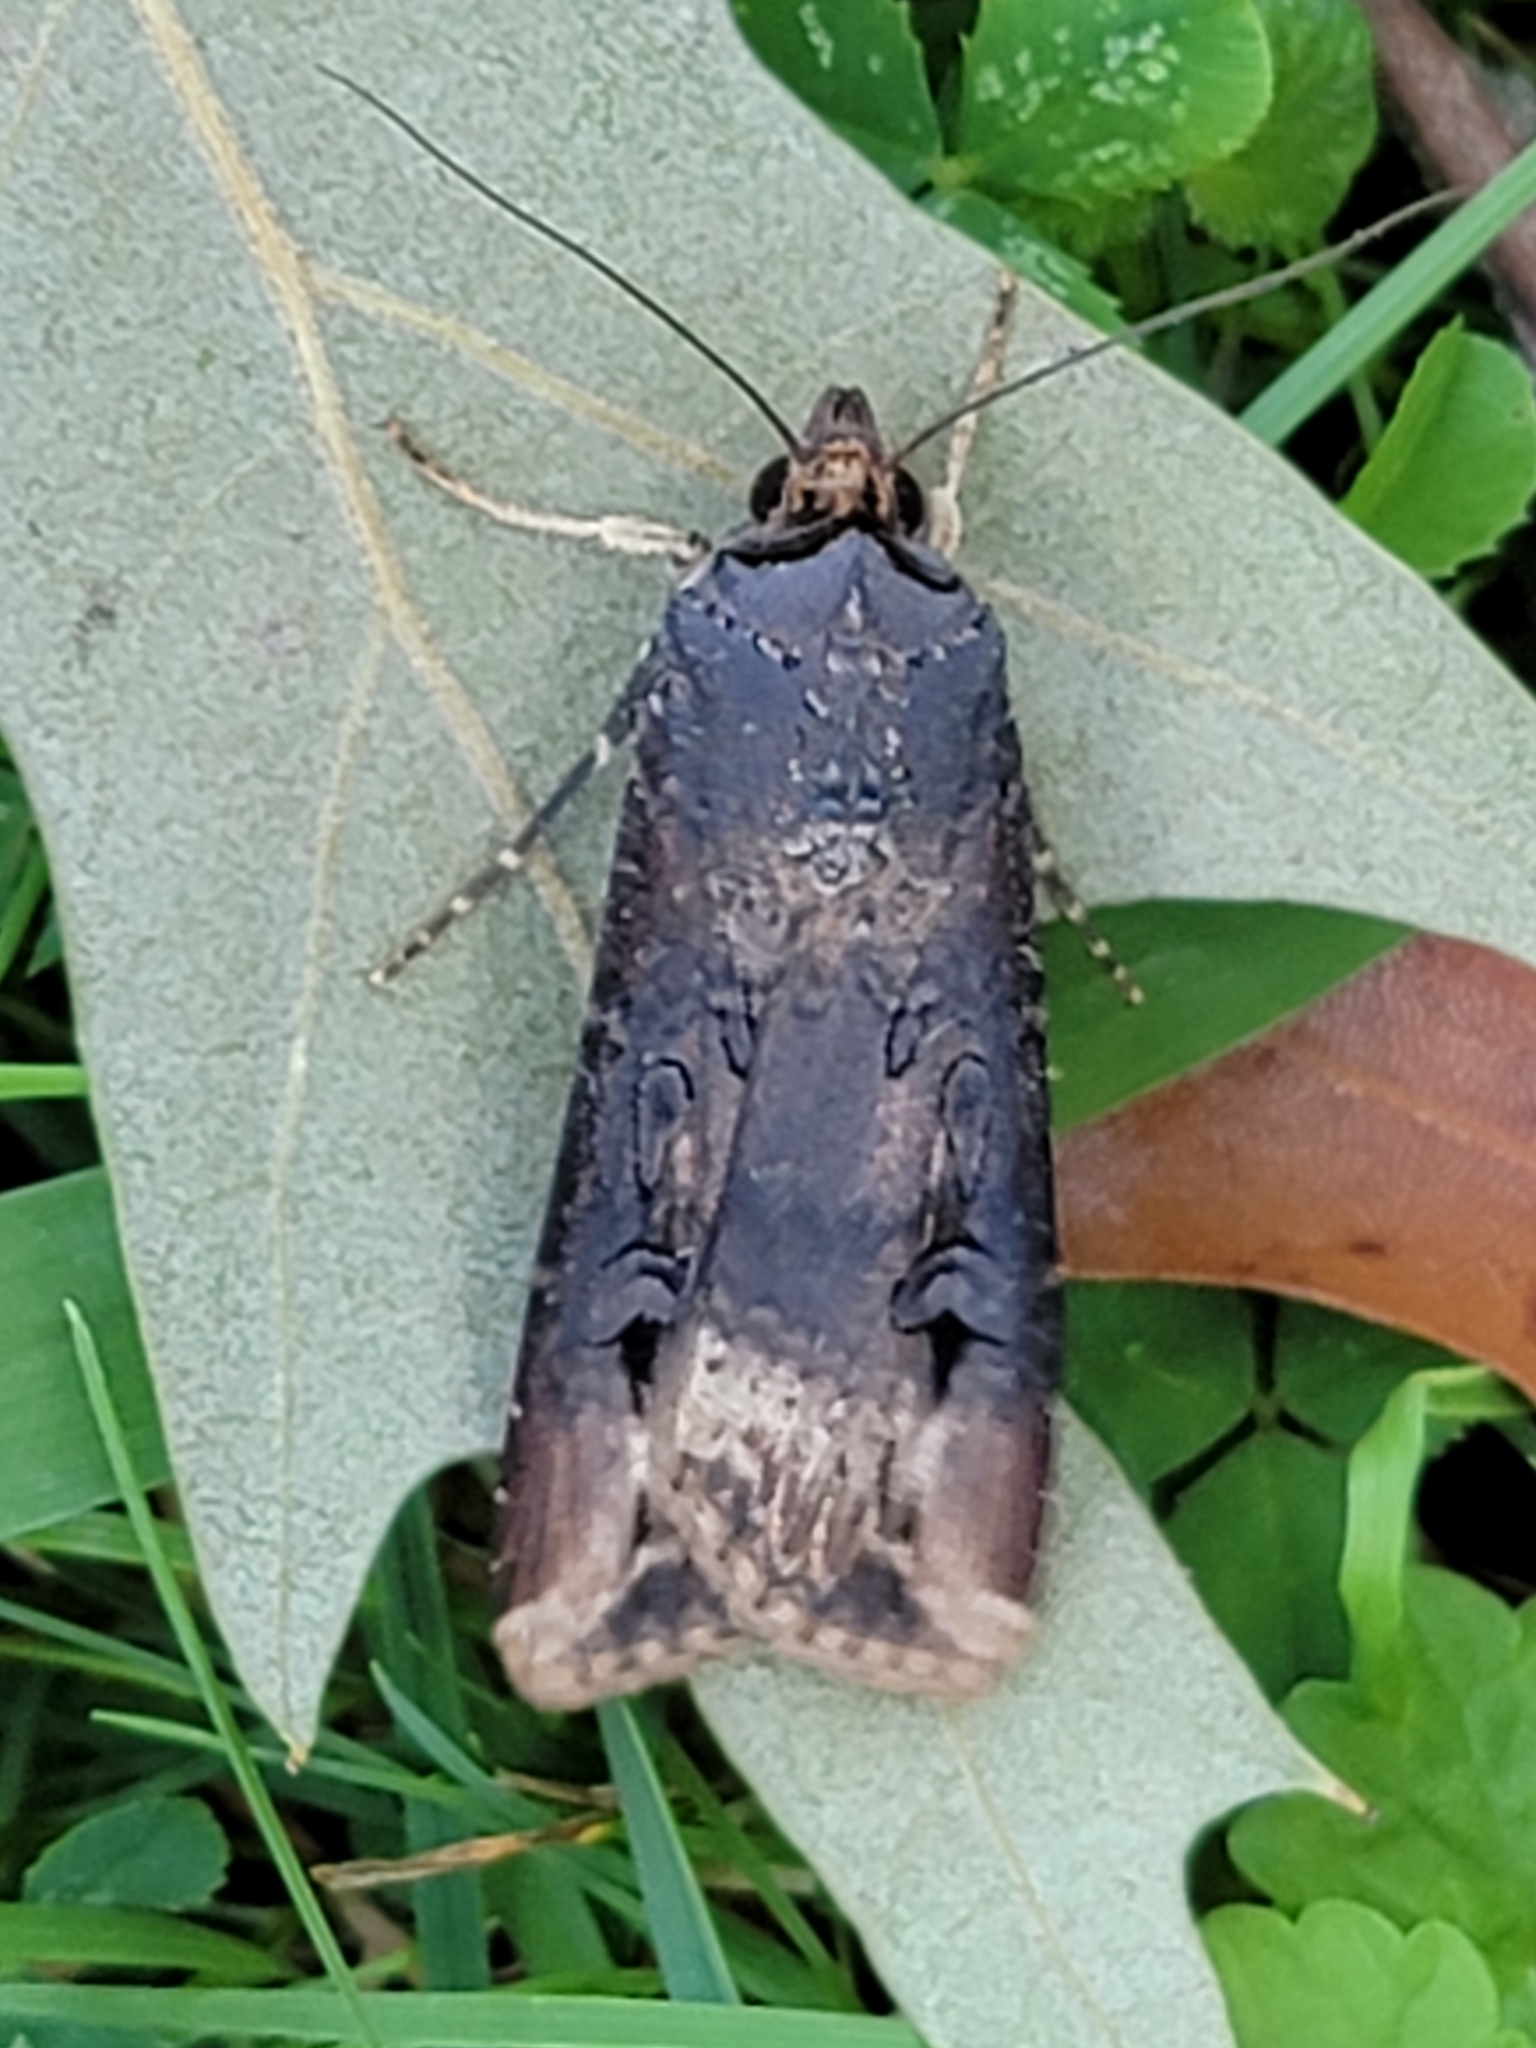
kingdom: Animalia
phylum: Arthropoda
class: Insecta
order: Lepidoptera
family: Noctuidae
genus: Agrotis
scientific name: Agrotis ipsilon
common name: Dark sword-grass
